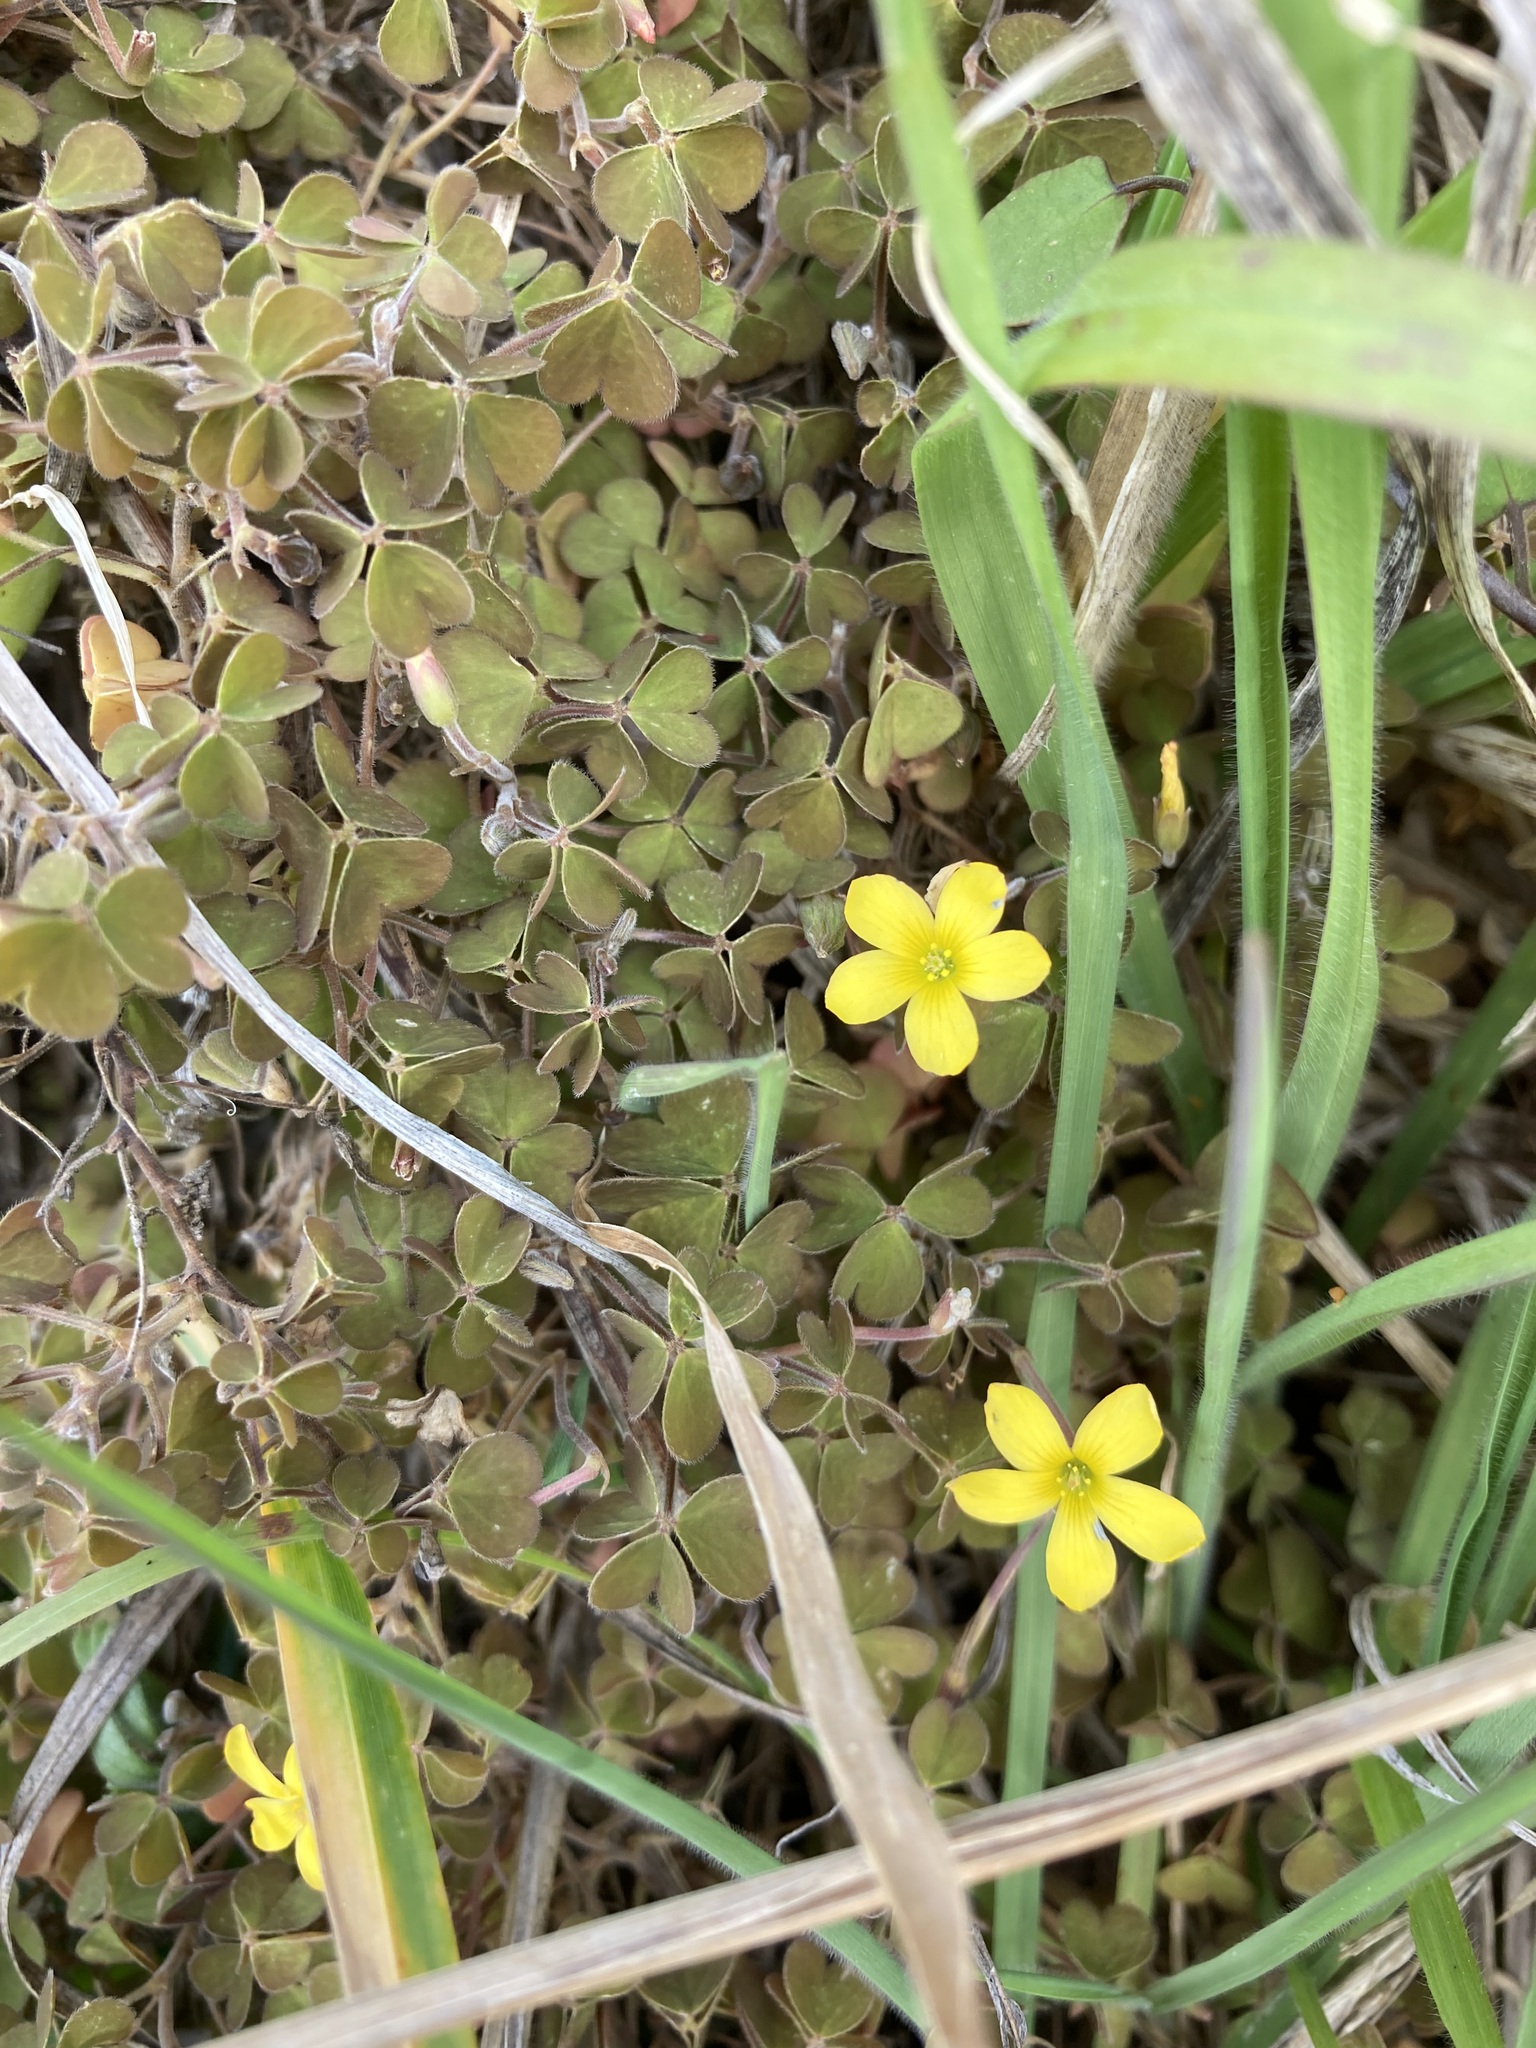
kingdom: Plantae
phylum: Tracheophyta
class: Magnoliopsida
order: Oxalidales
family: Oxalidaceae
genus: Oxalis
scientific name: Oxalis exilis
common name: Least yellow-sorrel
